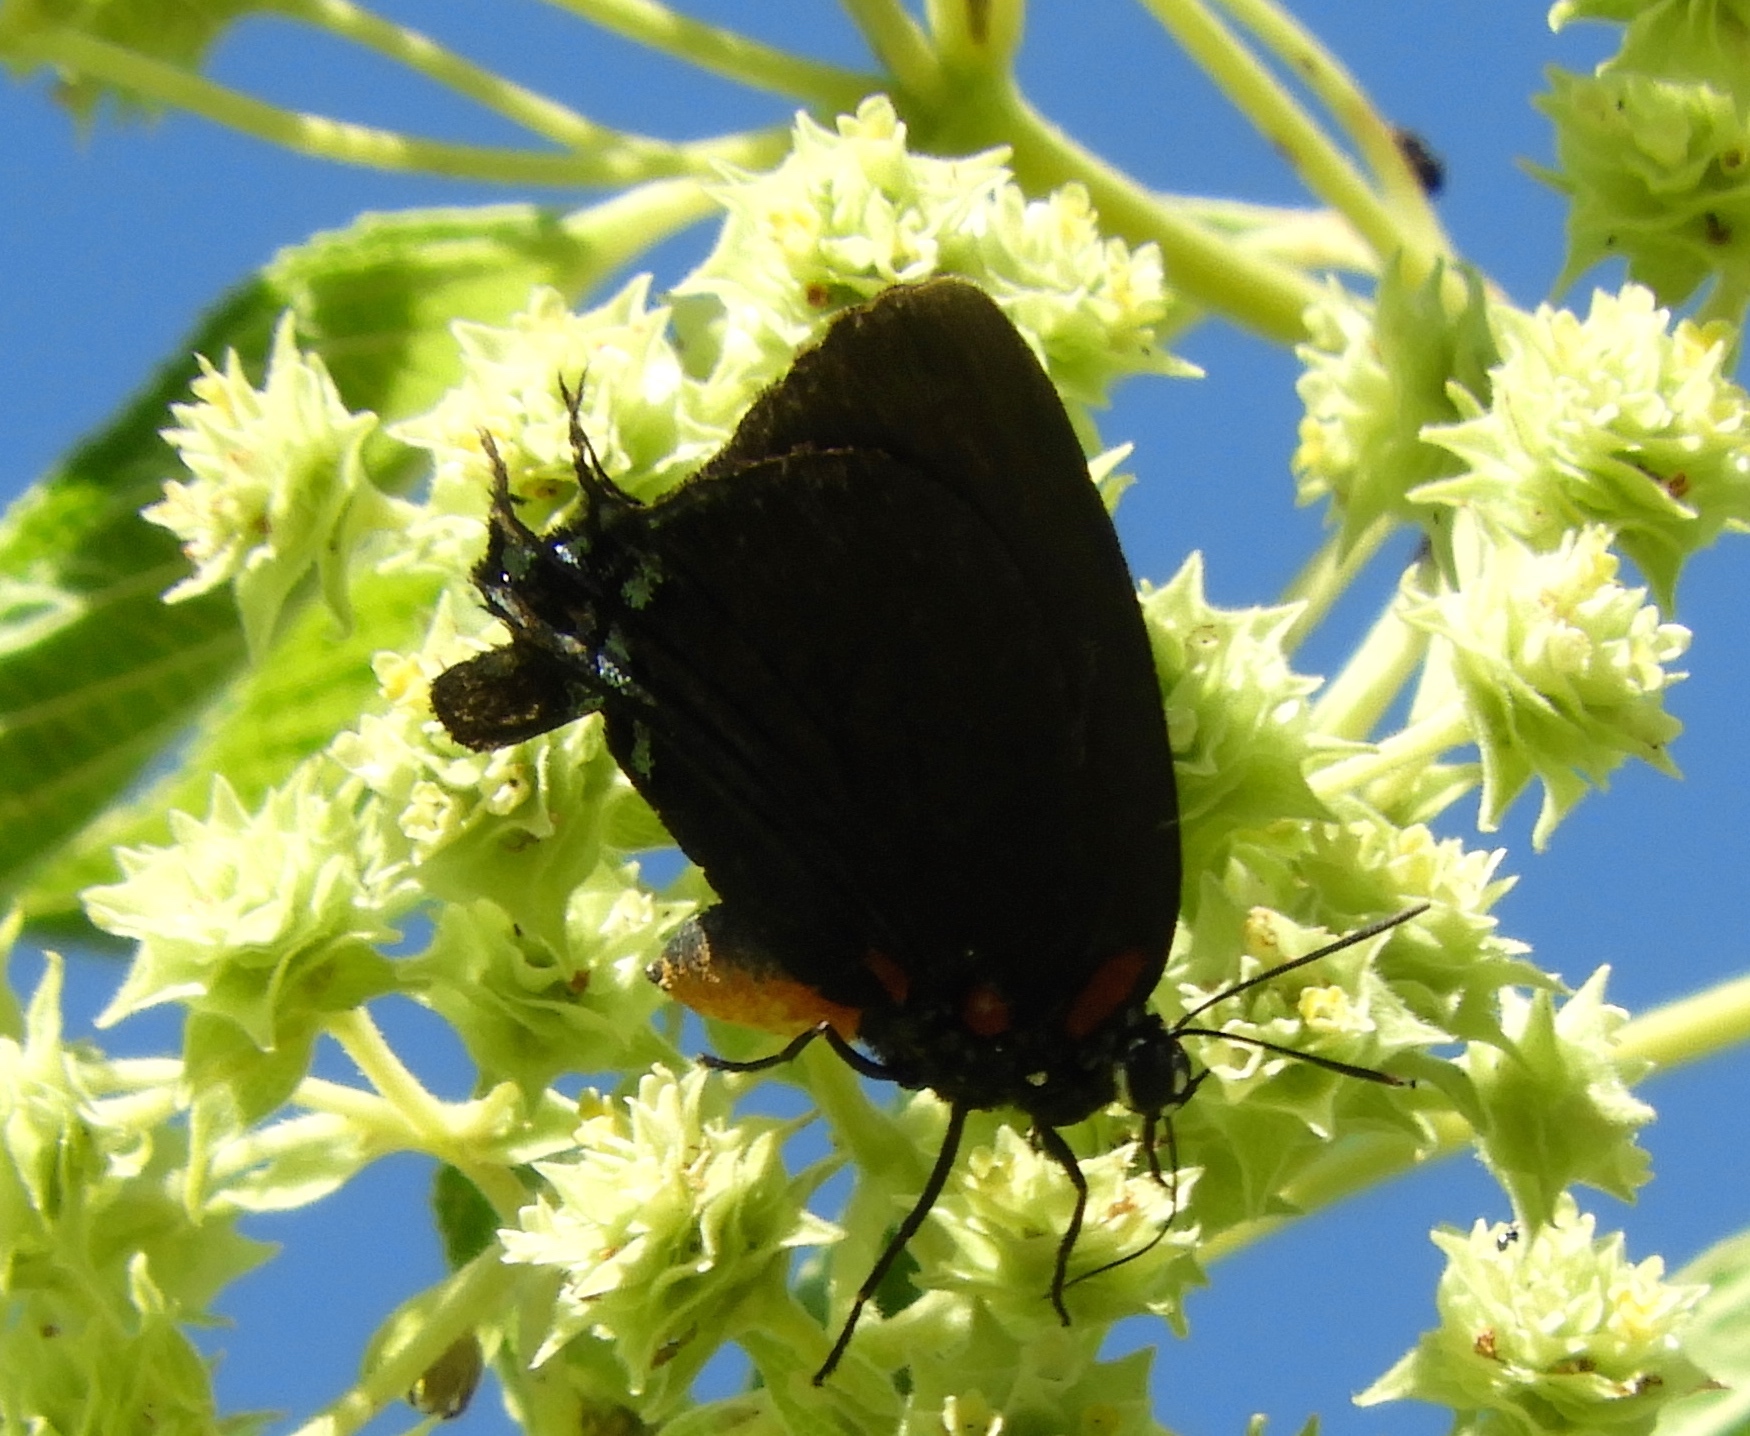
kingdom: Animalia
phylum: Arthropoda
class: Insecta
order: Lepidoptera
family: Lycaenidae
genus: Atlides
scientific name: Atlides halesus
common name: Great purple hairstreak
